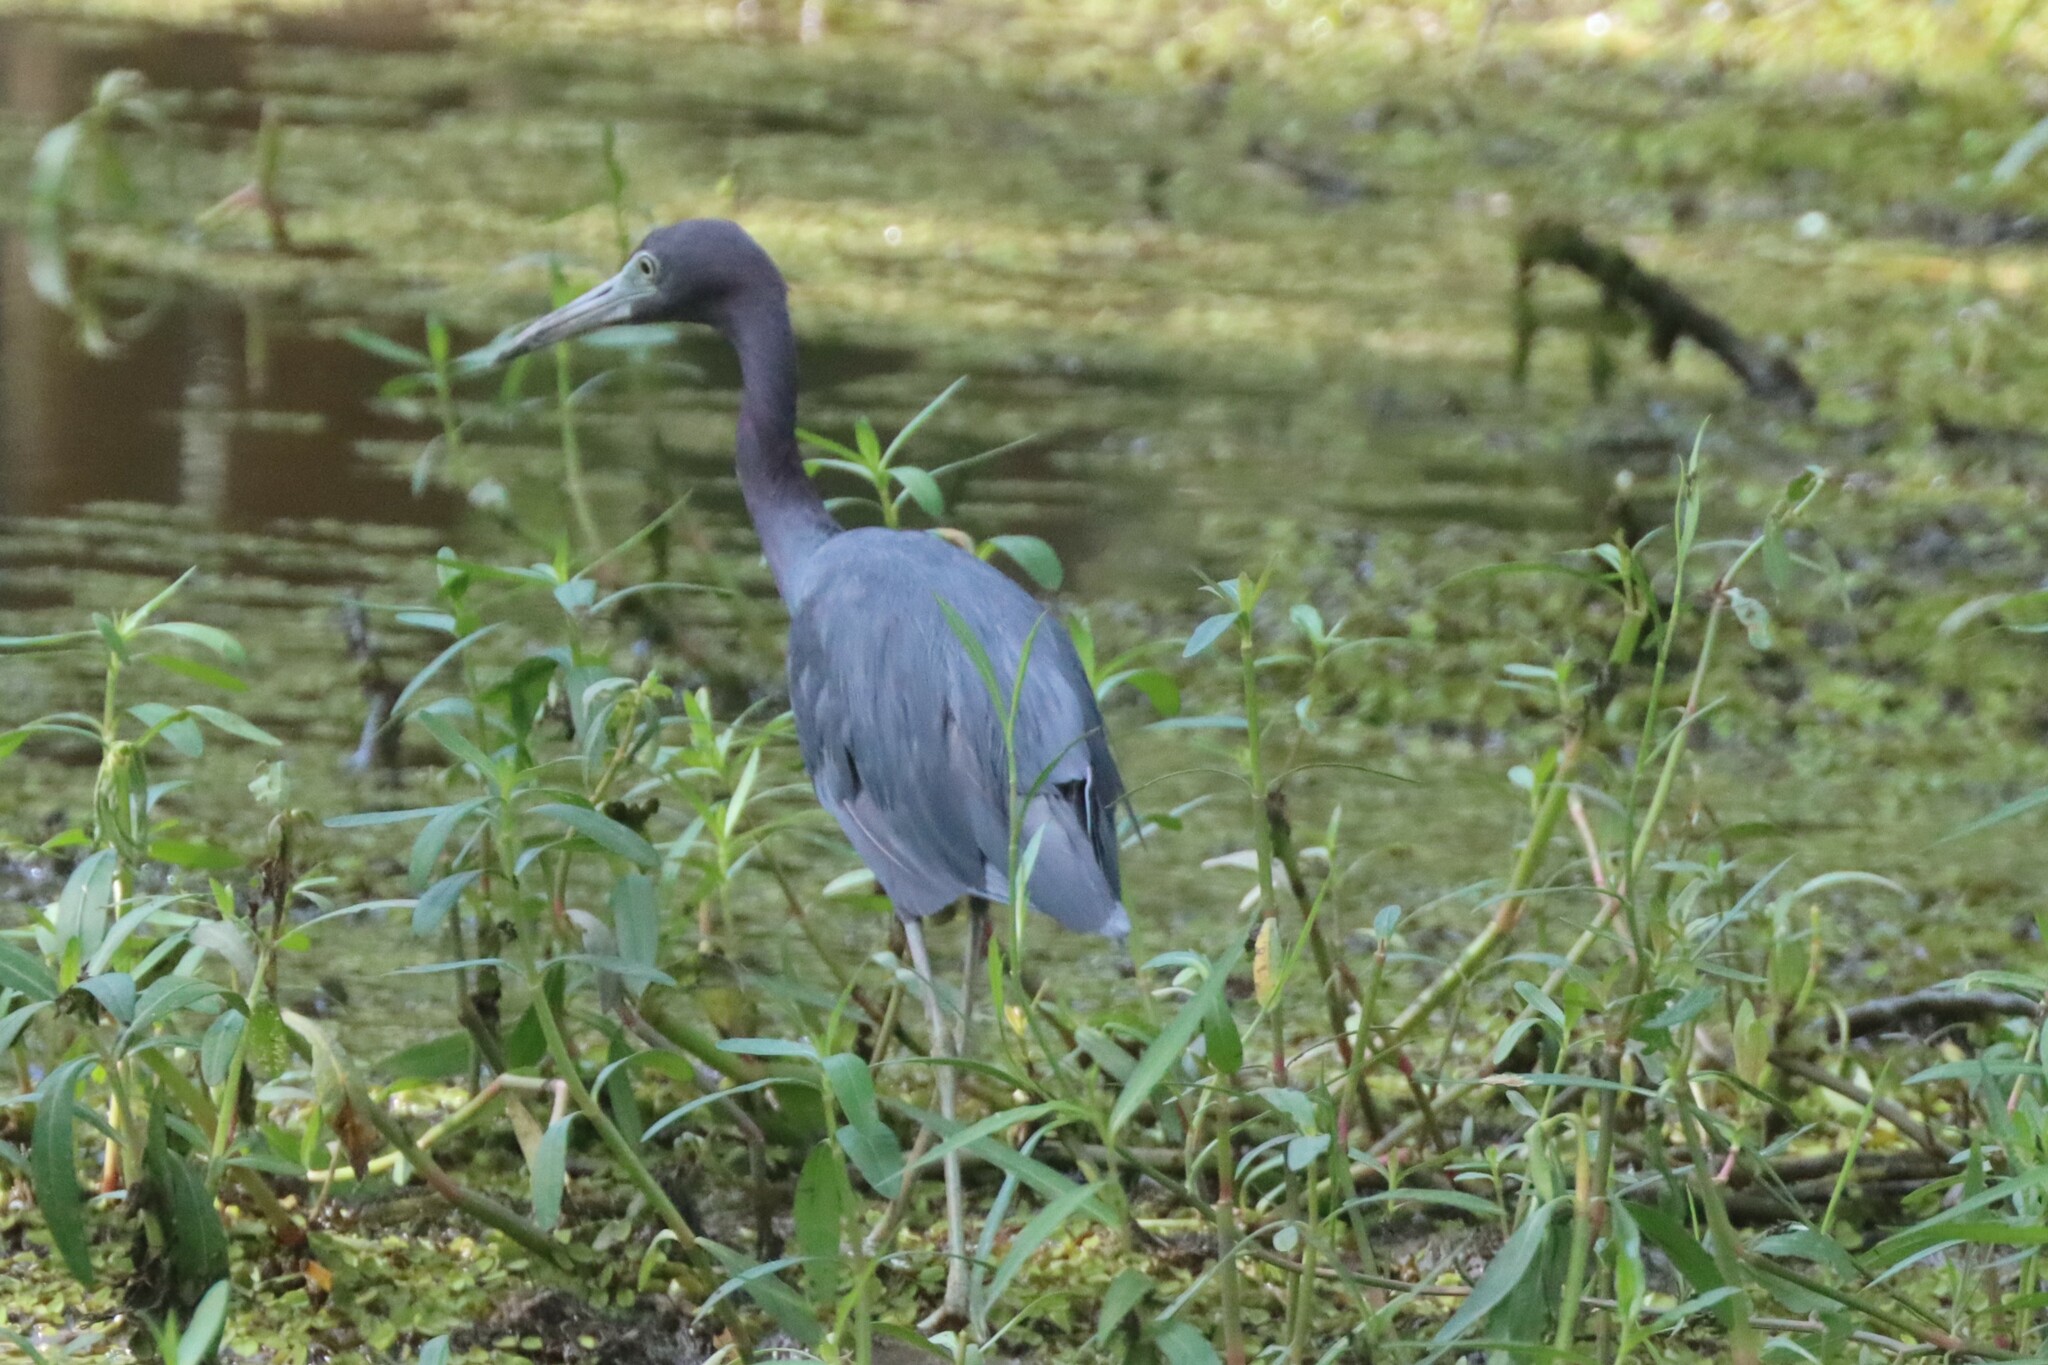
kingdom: Animalia
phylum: Chordata
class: Aves
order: Pelecaniformes
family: Ardeidae
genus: Egretta
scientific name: Egretta caerulea
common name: Little blue heron
